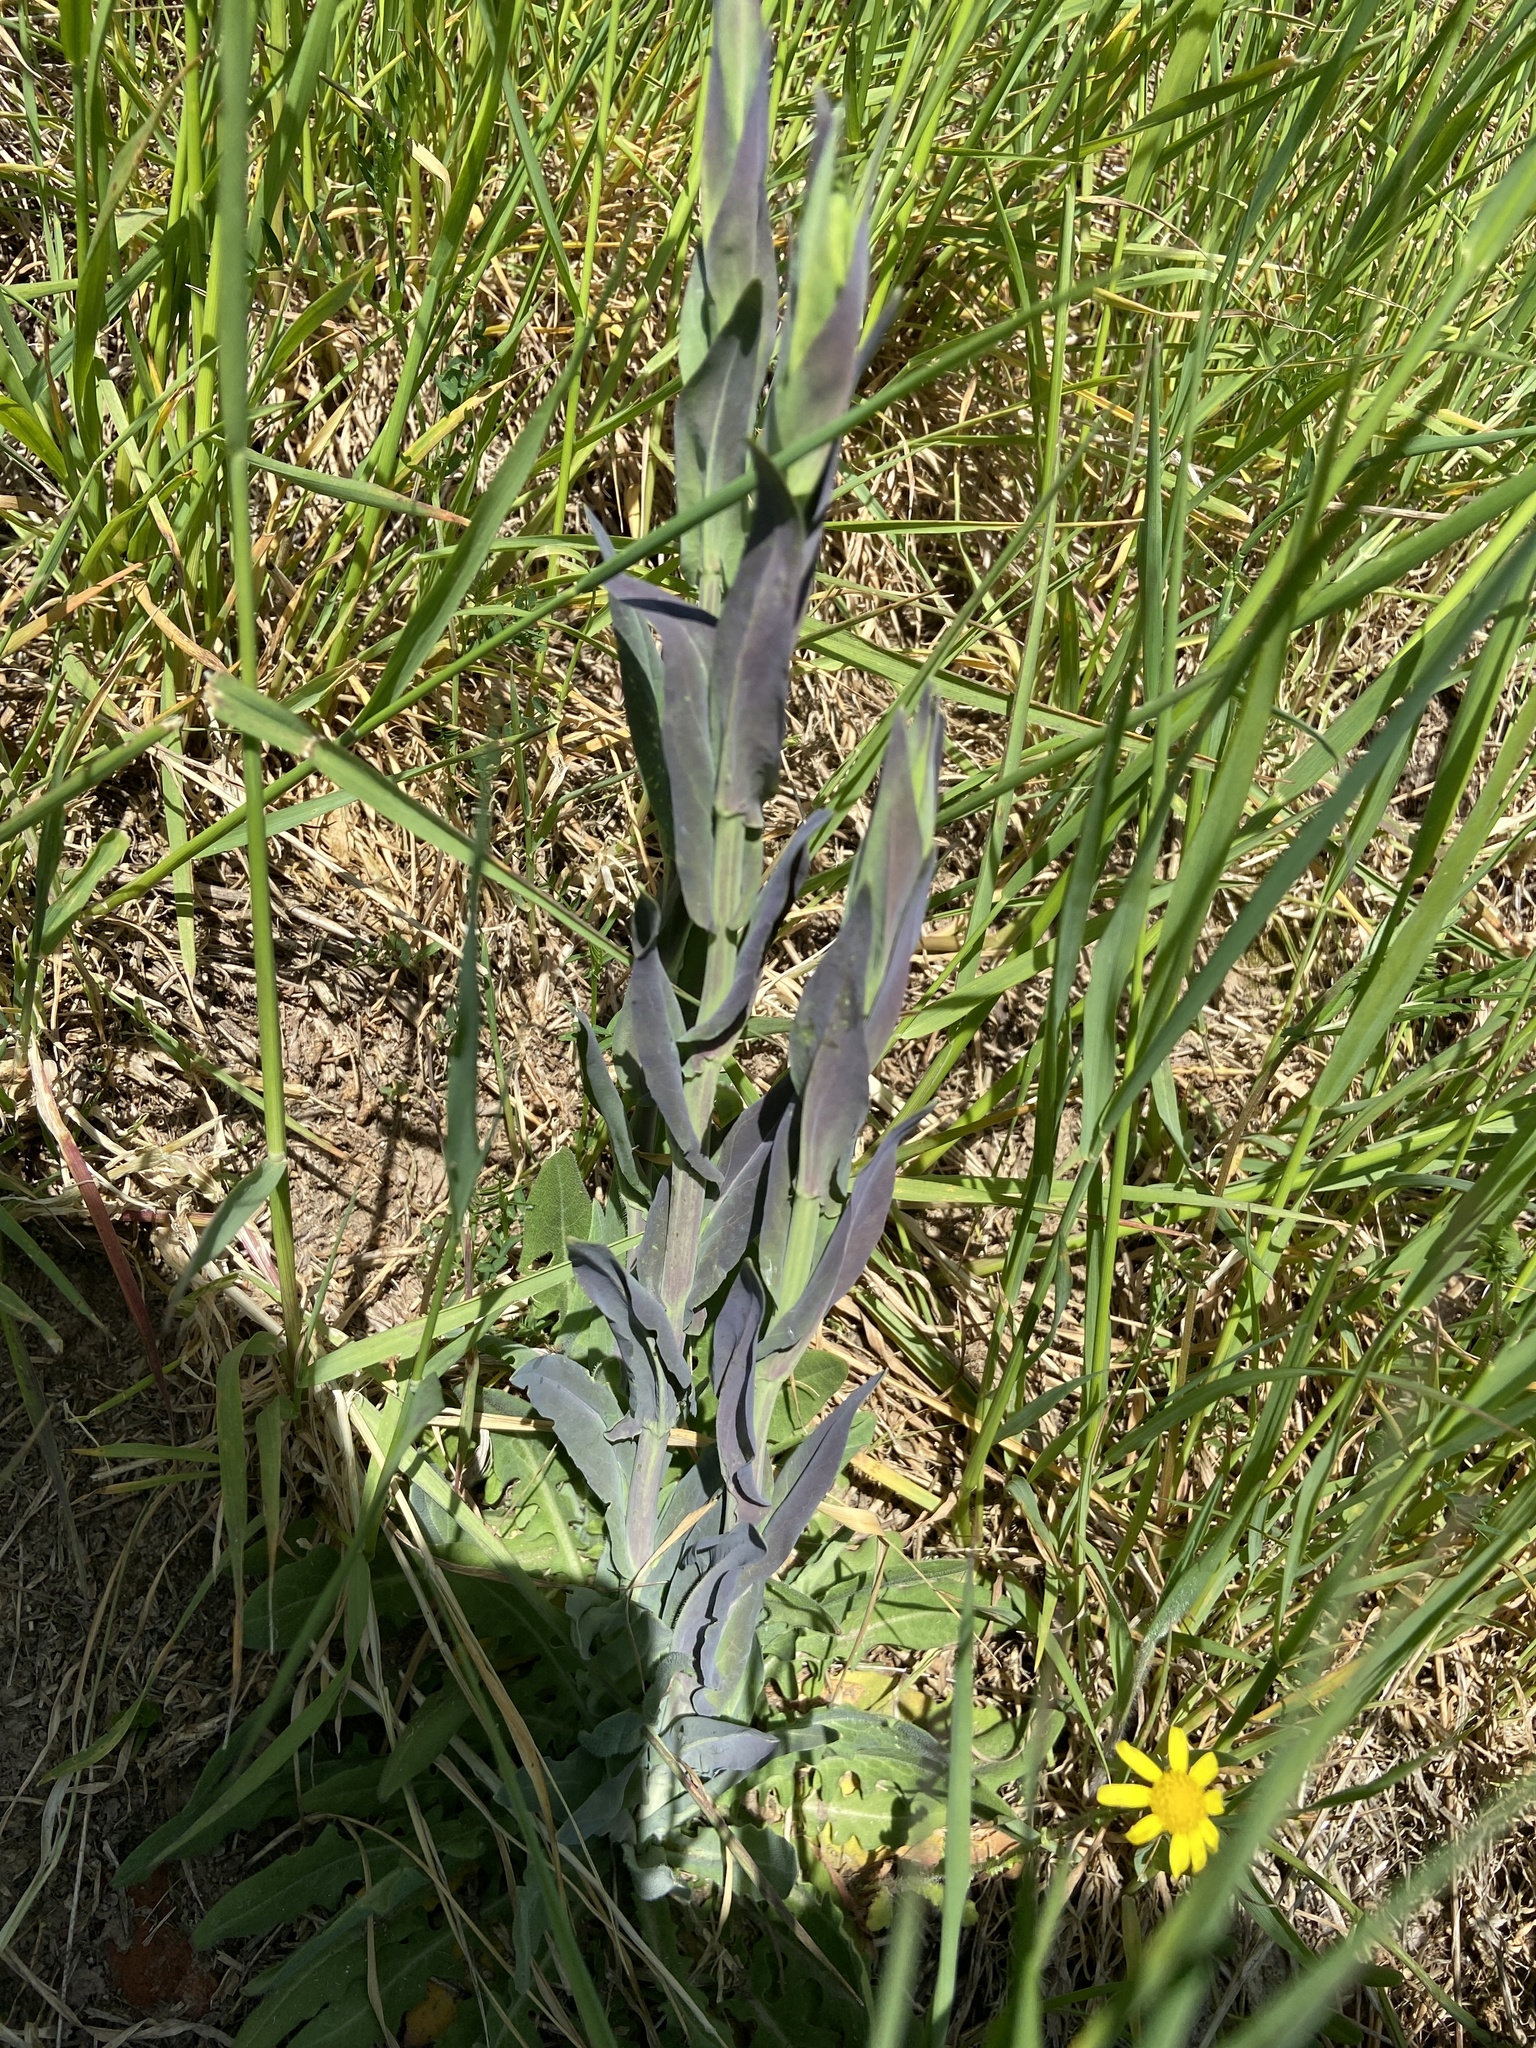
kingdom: Plantae
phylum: Tracheophyta
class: Magnoliopsida
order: Brassicales
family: Brassicaceae
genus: Turritis
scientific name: Turritis glabra
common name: Tower rockcress
